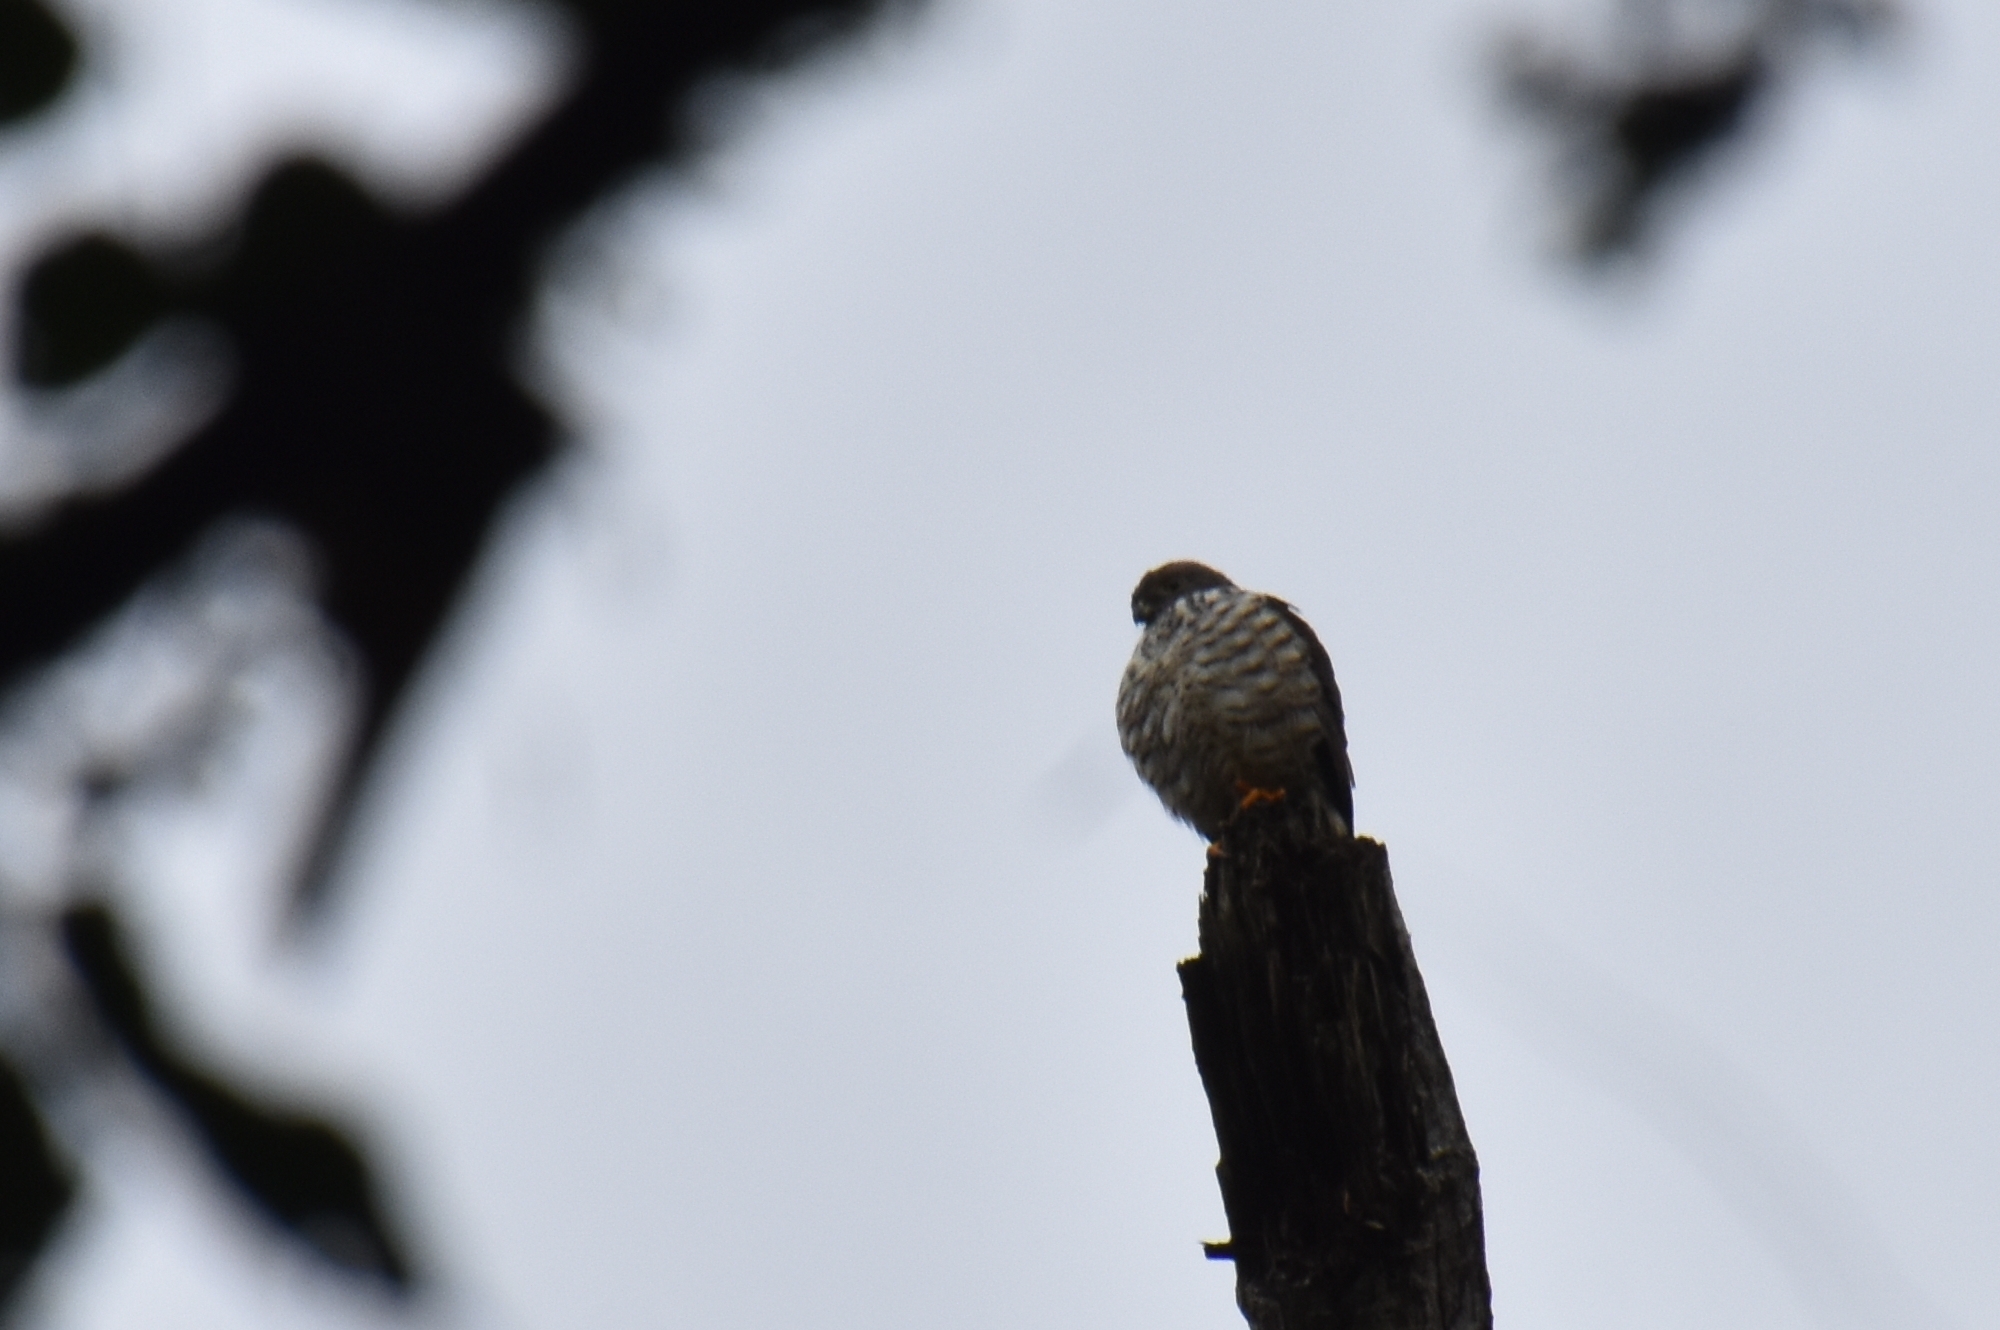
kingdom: Animalia
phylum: Chordata
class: Aves
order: Accipitriformes
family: Accipitridae
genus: Harpagus
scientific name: Harpagus bidentatus
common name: Double-toothed kite
